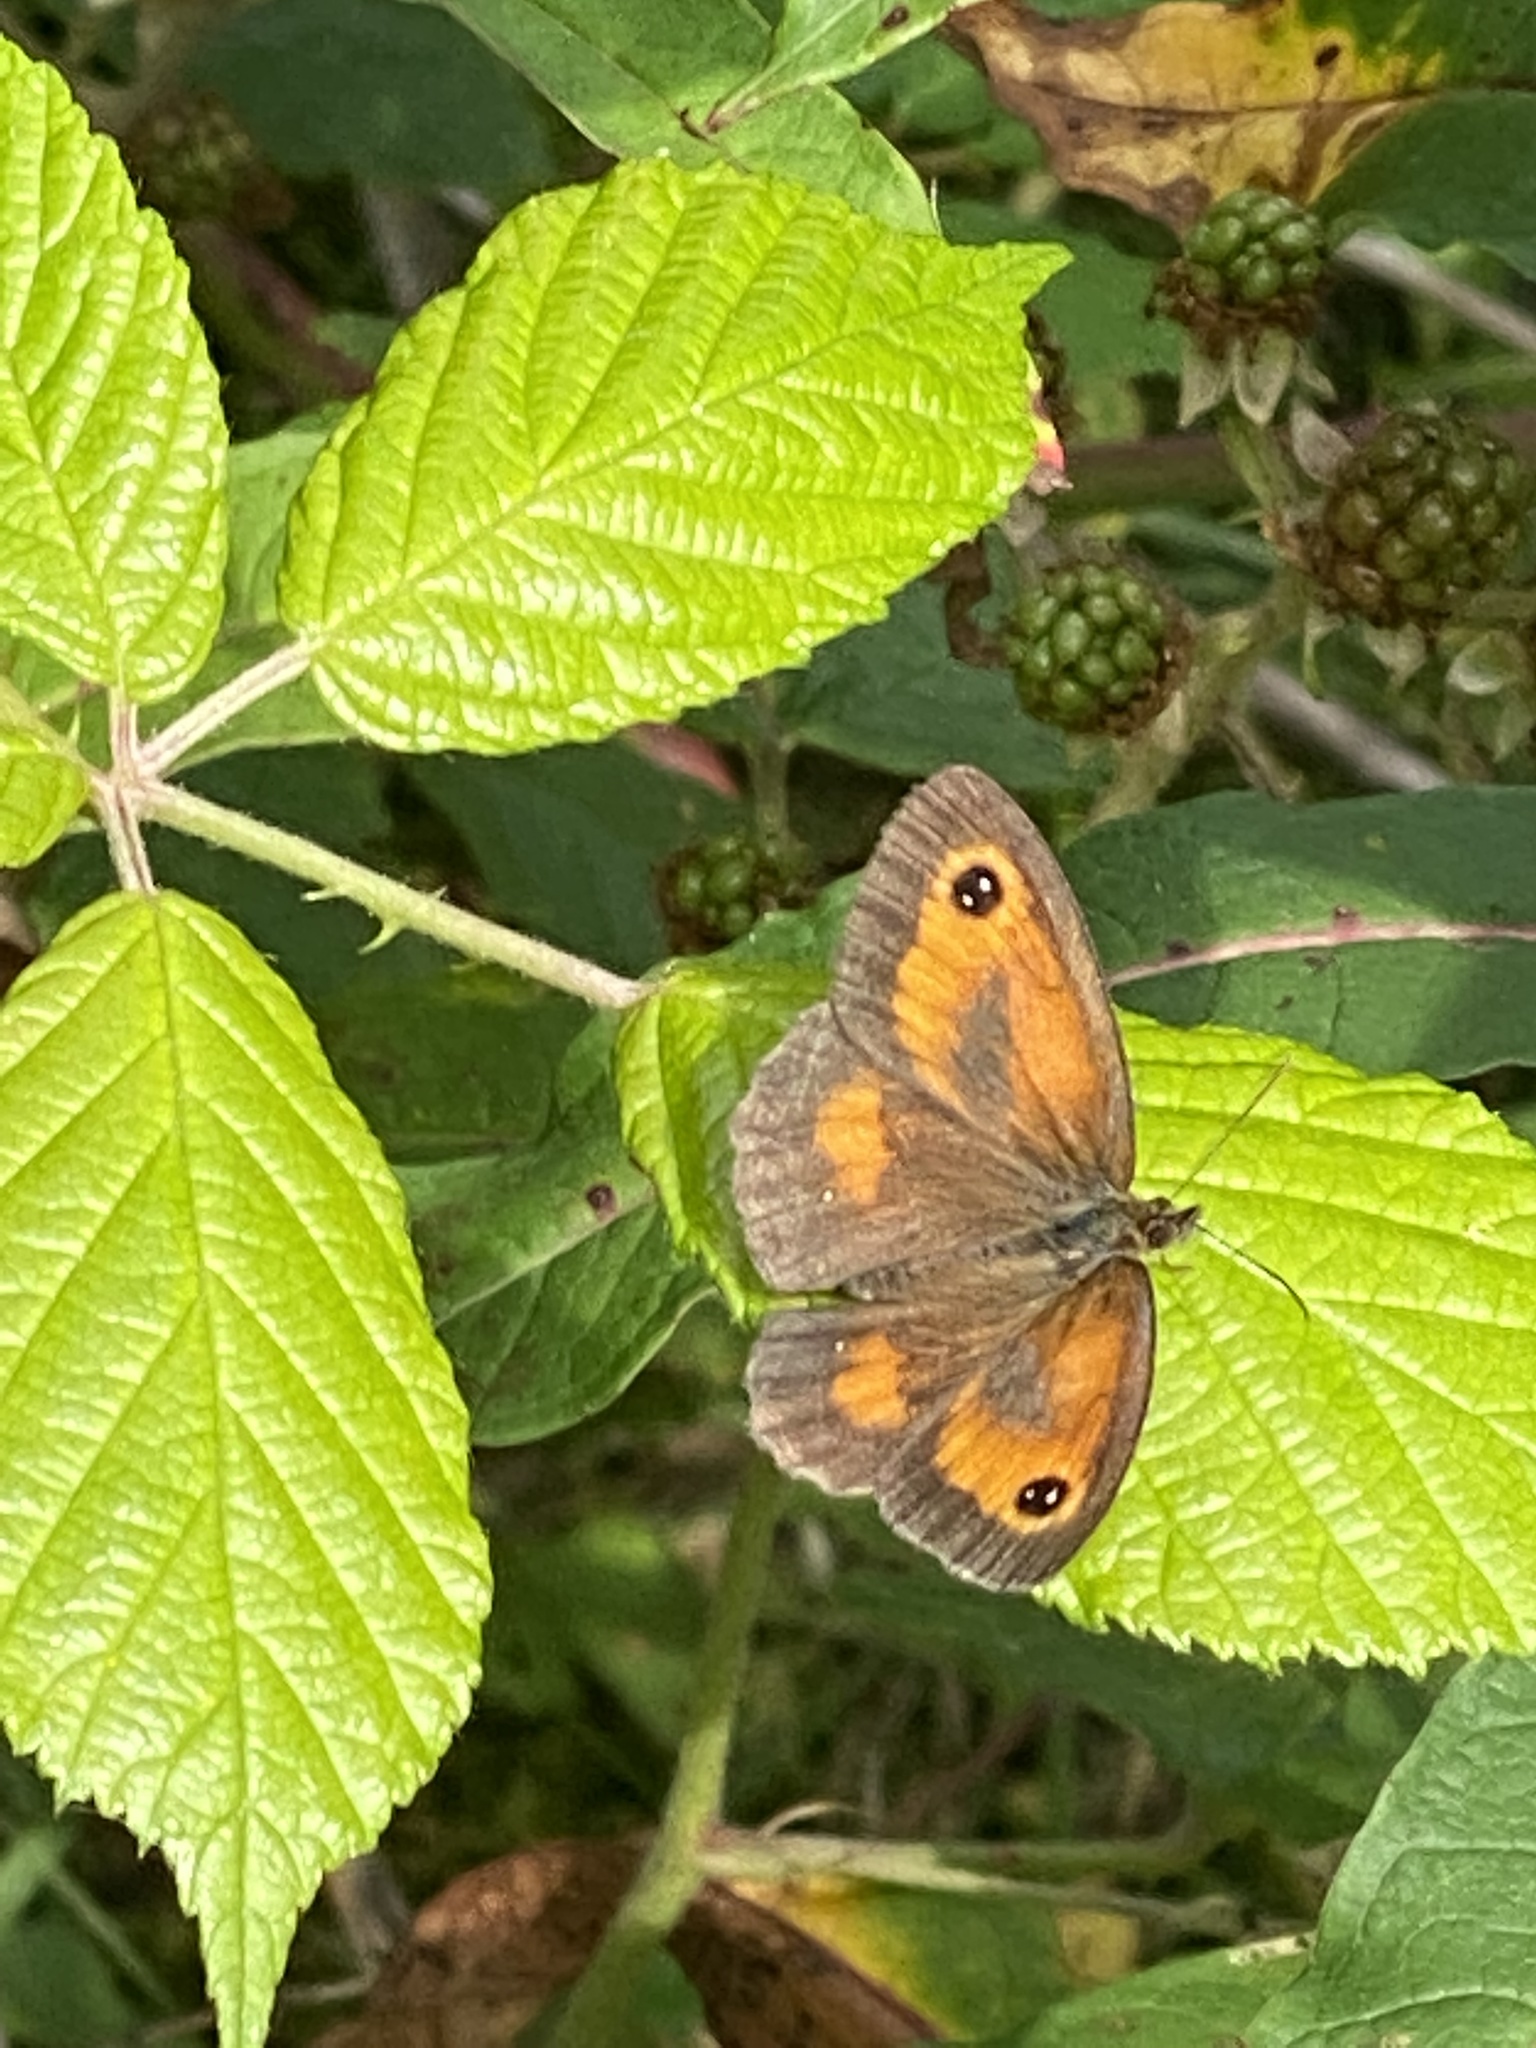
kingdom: Animalia
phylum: Arthropoda
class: Insecta
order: Lepidoptera
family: Nymphalidae
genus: Pyronia
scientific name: Pyronia tithonus
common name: Gatekeeper
